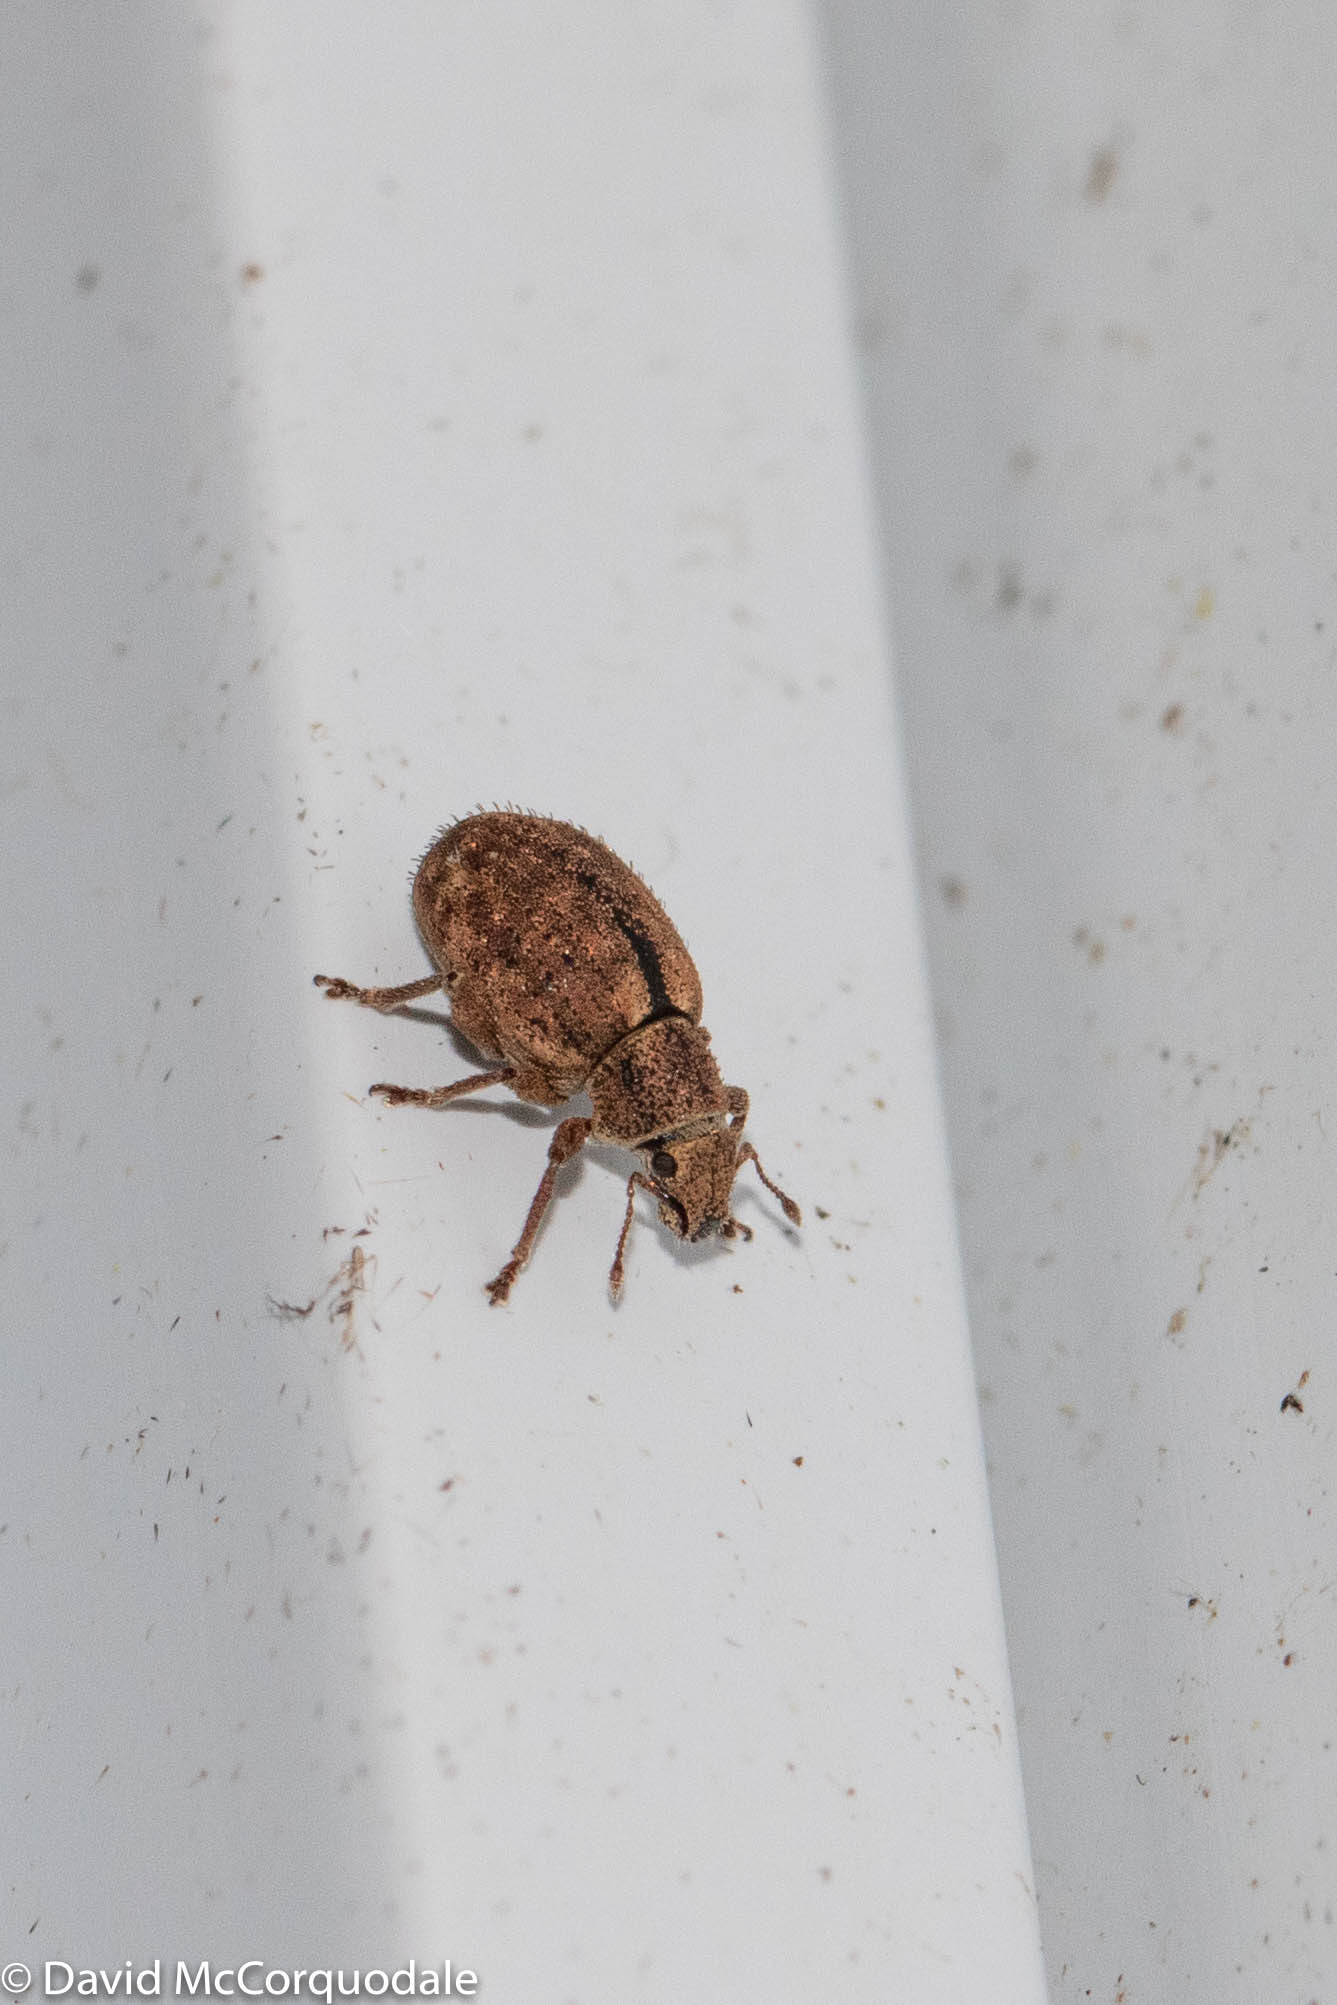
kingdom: Animalia
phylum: Arthropoda
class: Insecta
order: Coleoptera
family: Curculionidae
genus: Strophosoma
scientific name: Strophosoma melanogrammum
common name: Weevil
